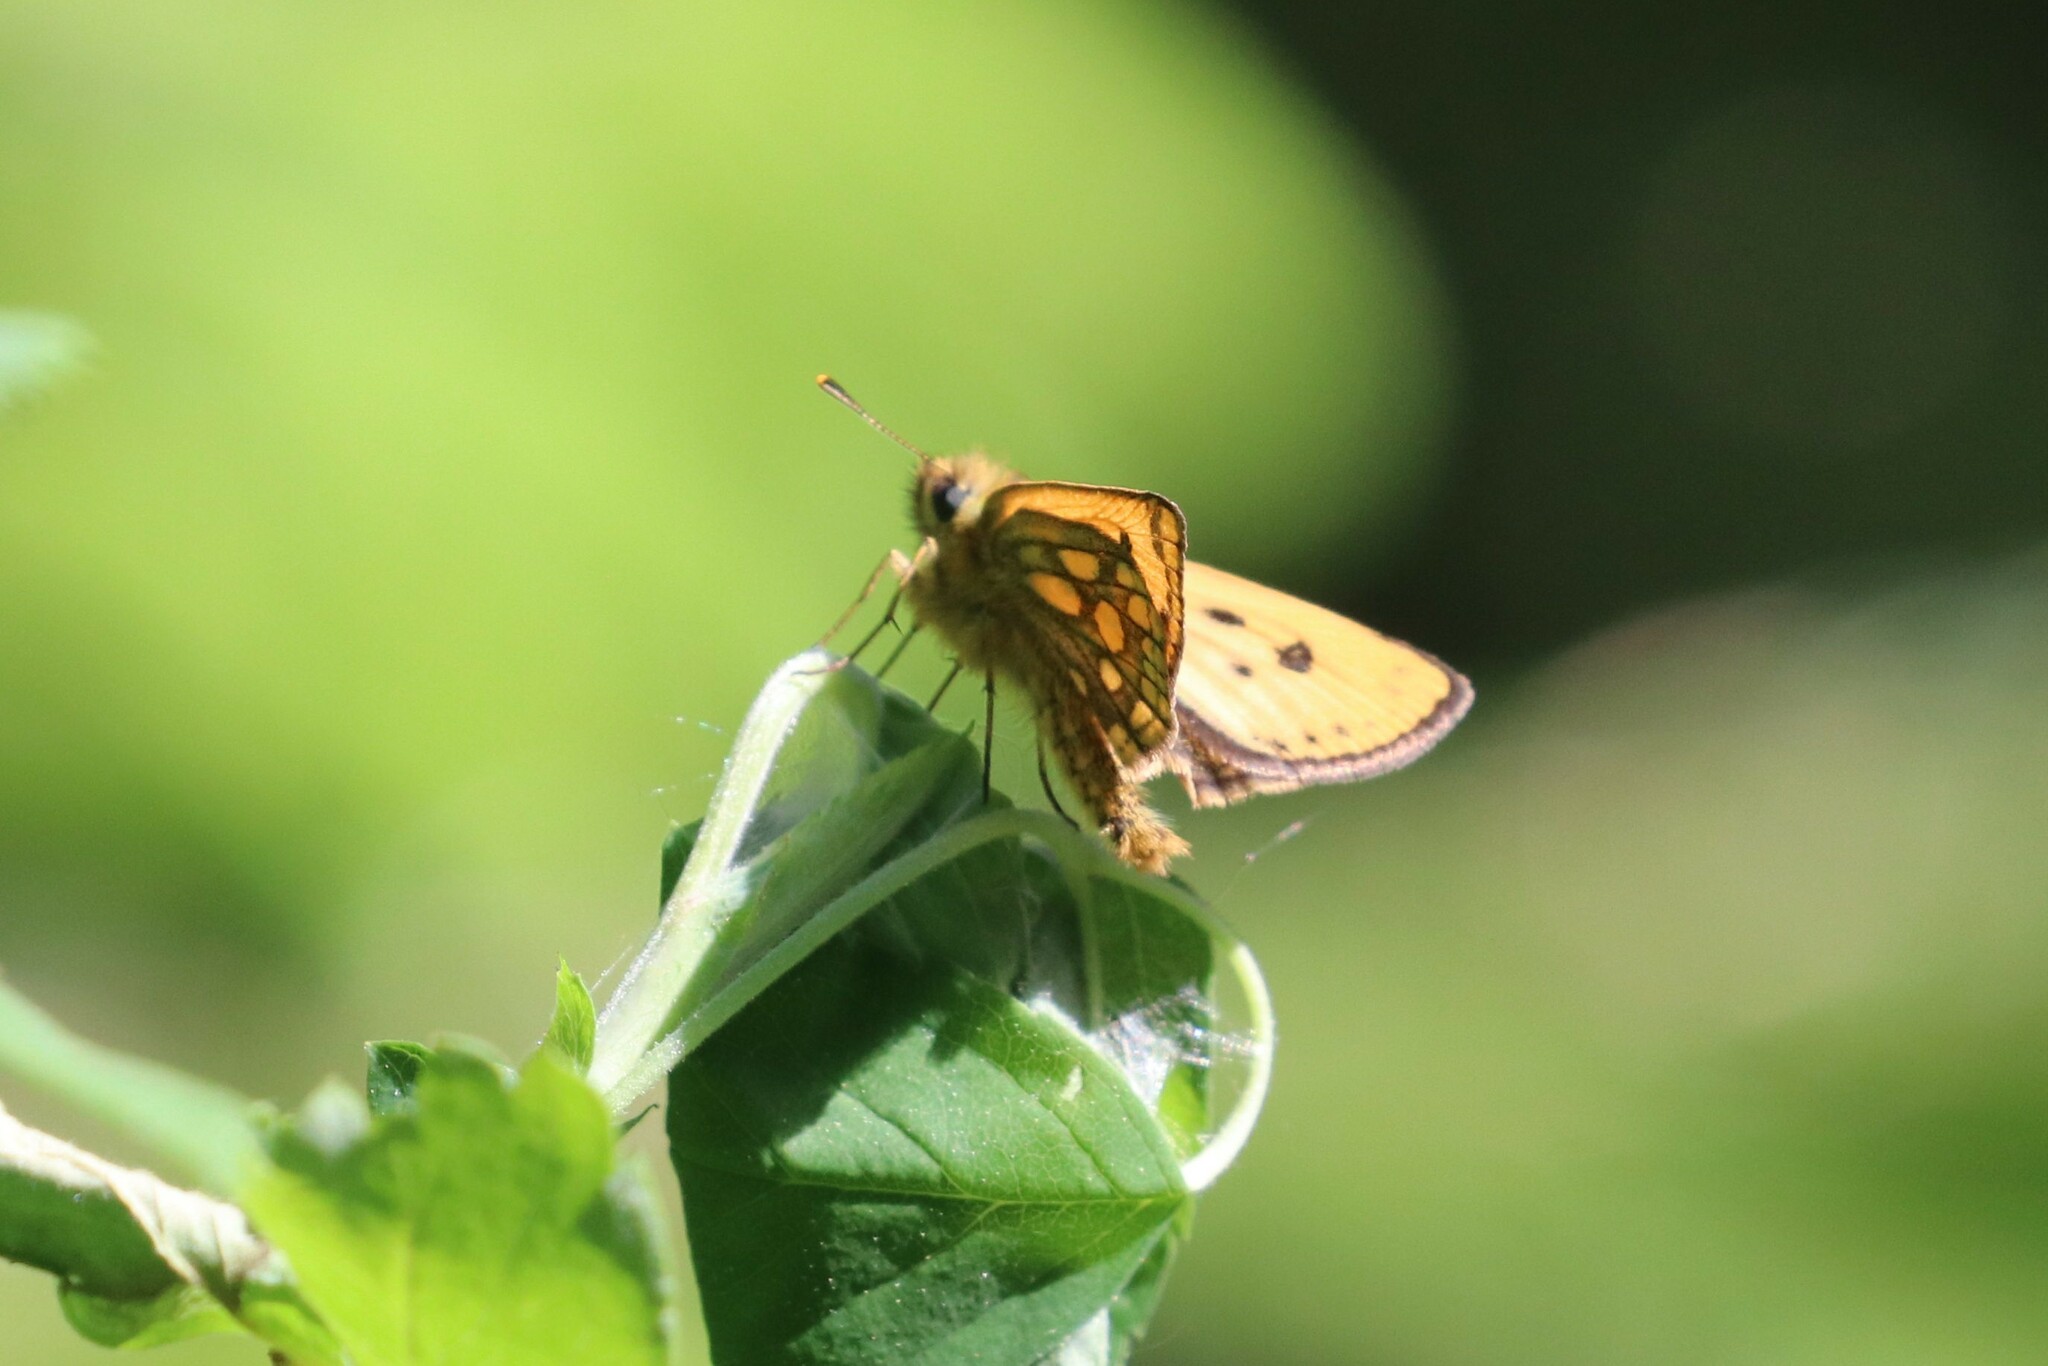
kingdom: Animalia
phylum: Arthropoda
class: Insecta
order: Lepidoptera
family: Hesperiidae
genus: Carterocephalus
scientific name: Carterocephalus silvicola
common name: Northern chequered skipper
